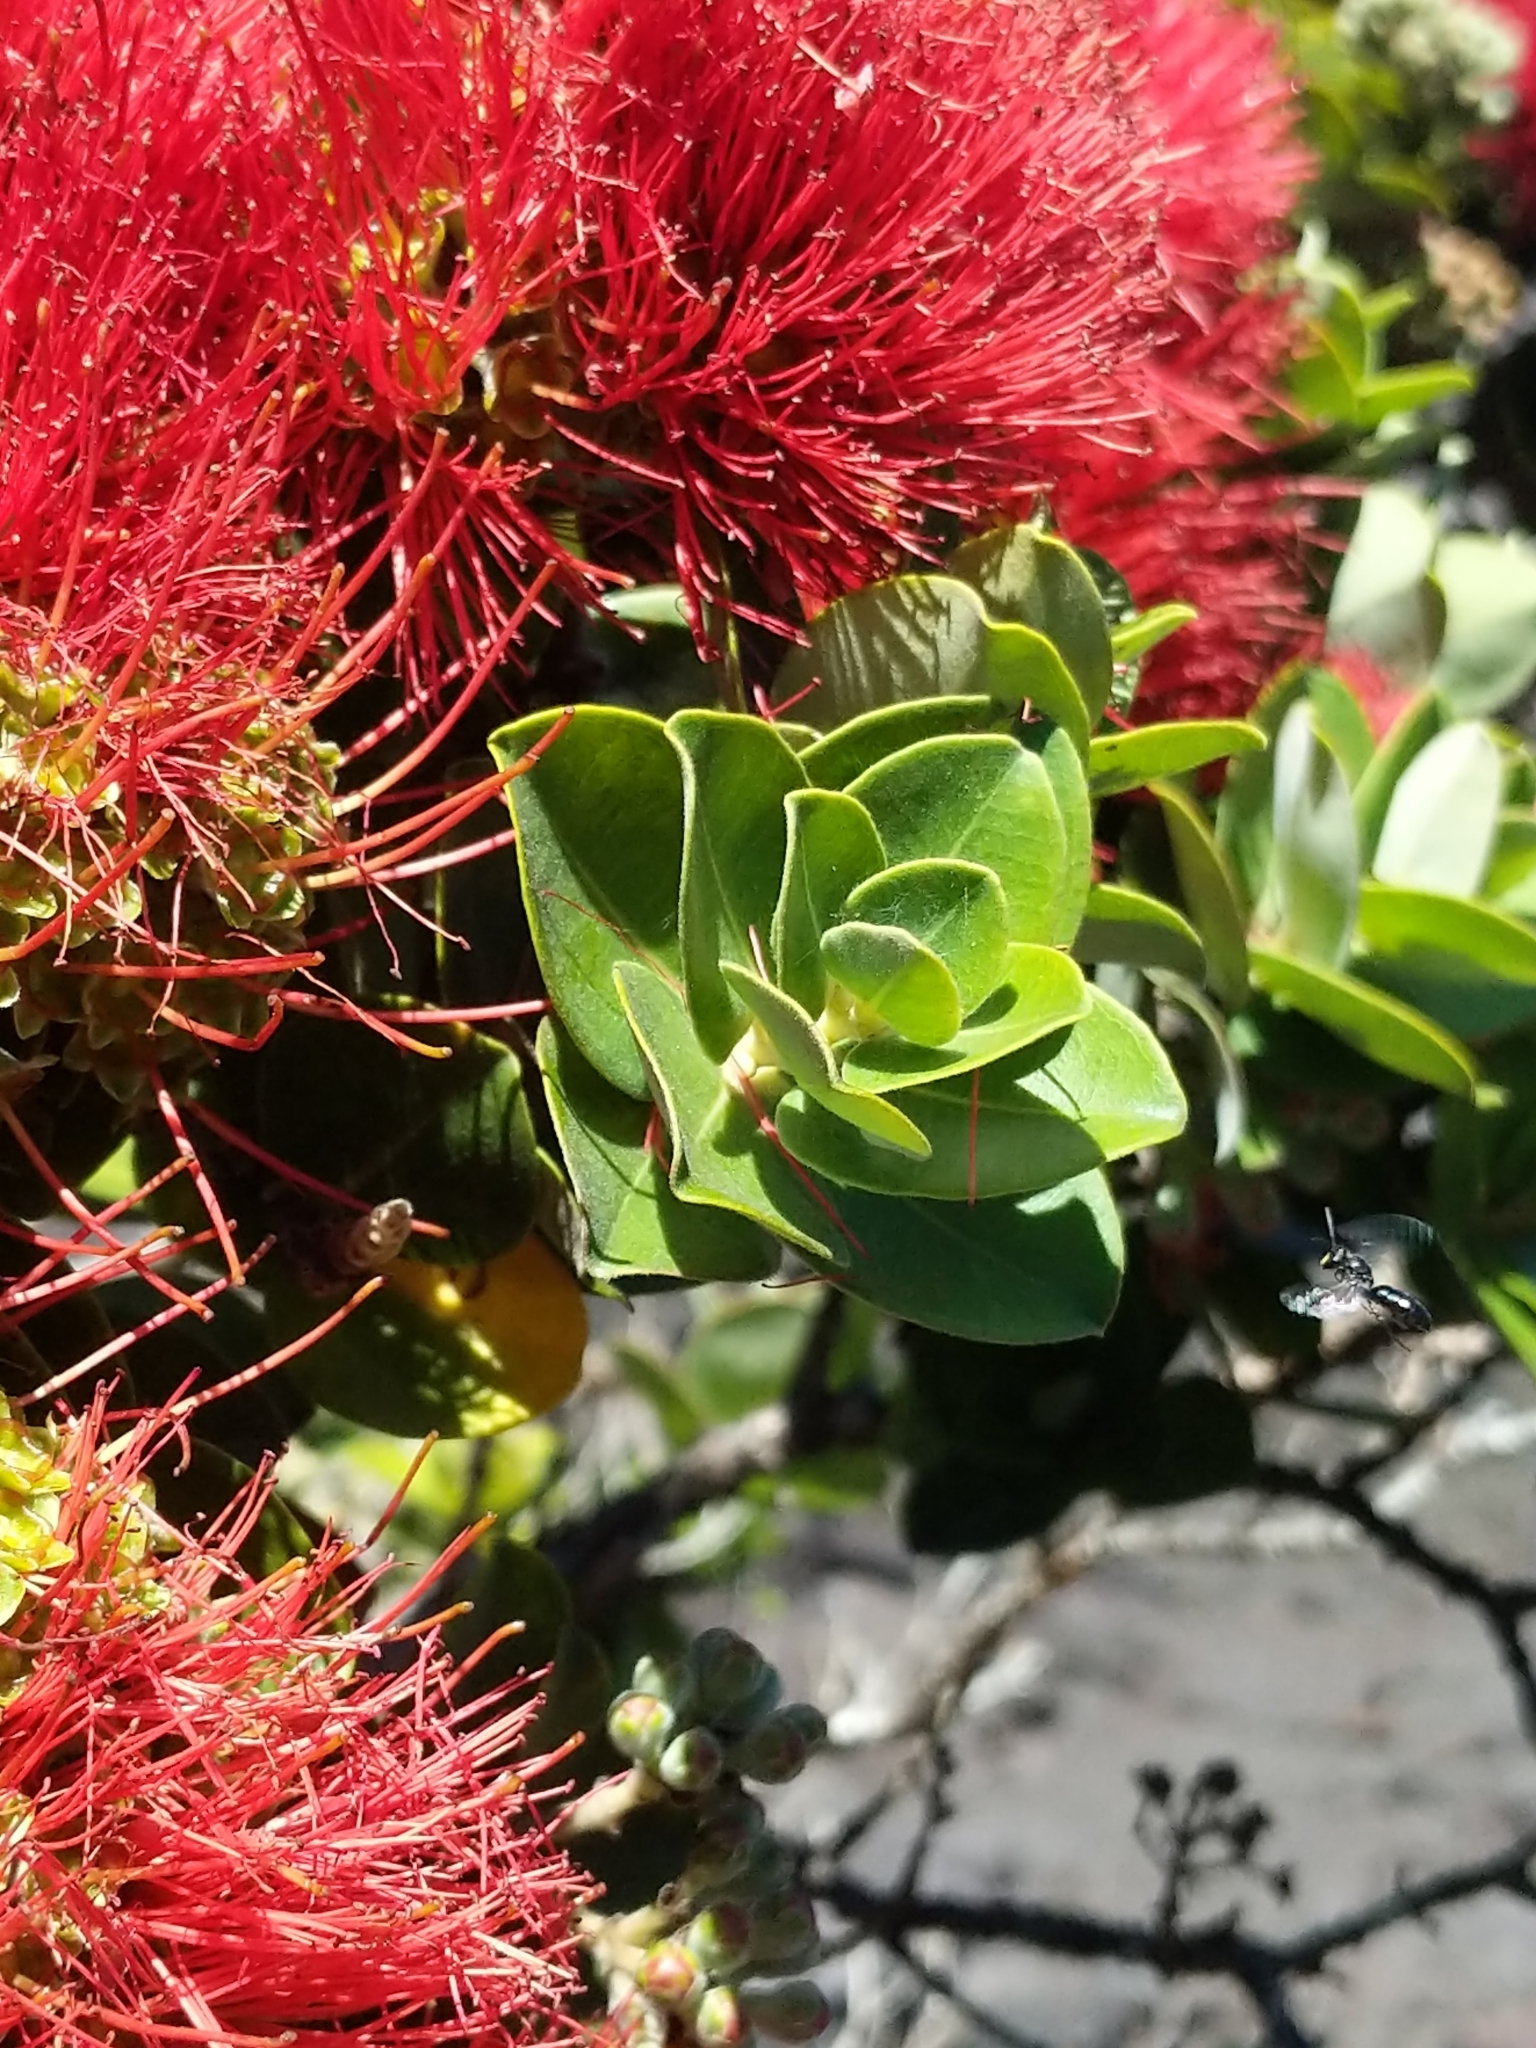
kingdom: Plantae
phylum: Tracheophyta
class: Magnoliopsida
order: Myrtales
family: Myrtaceae
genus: Metrosideros
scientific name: Metrosideros polymorpha
